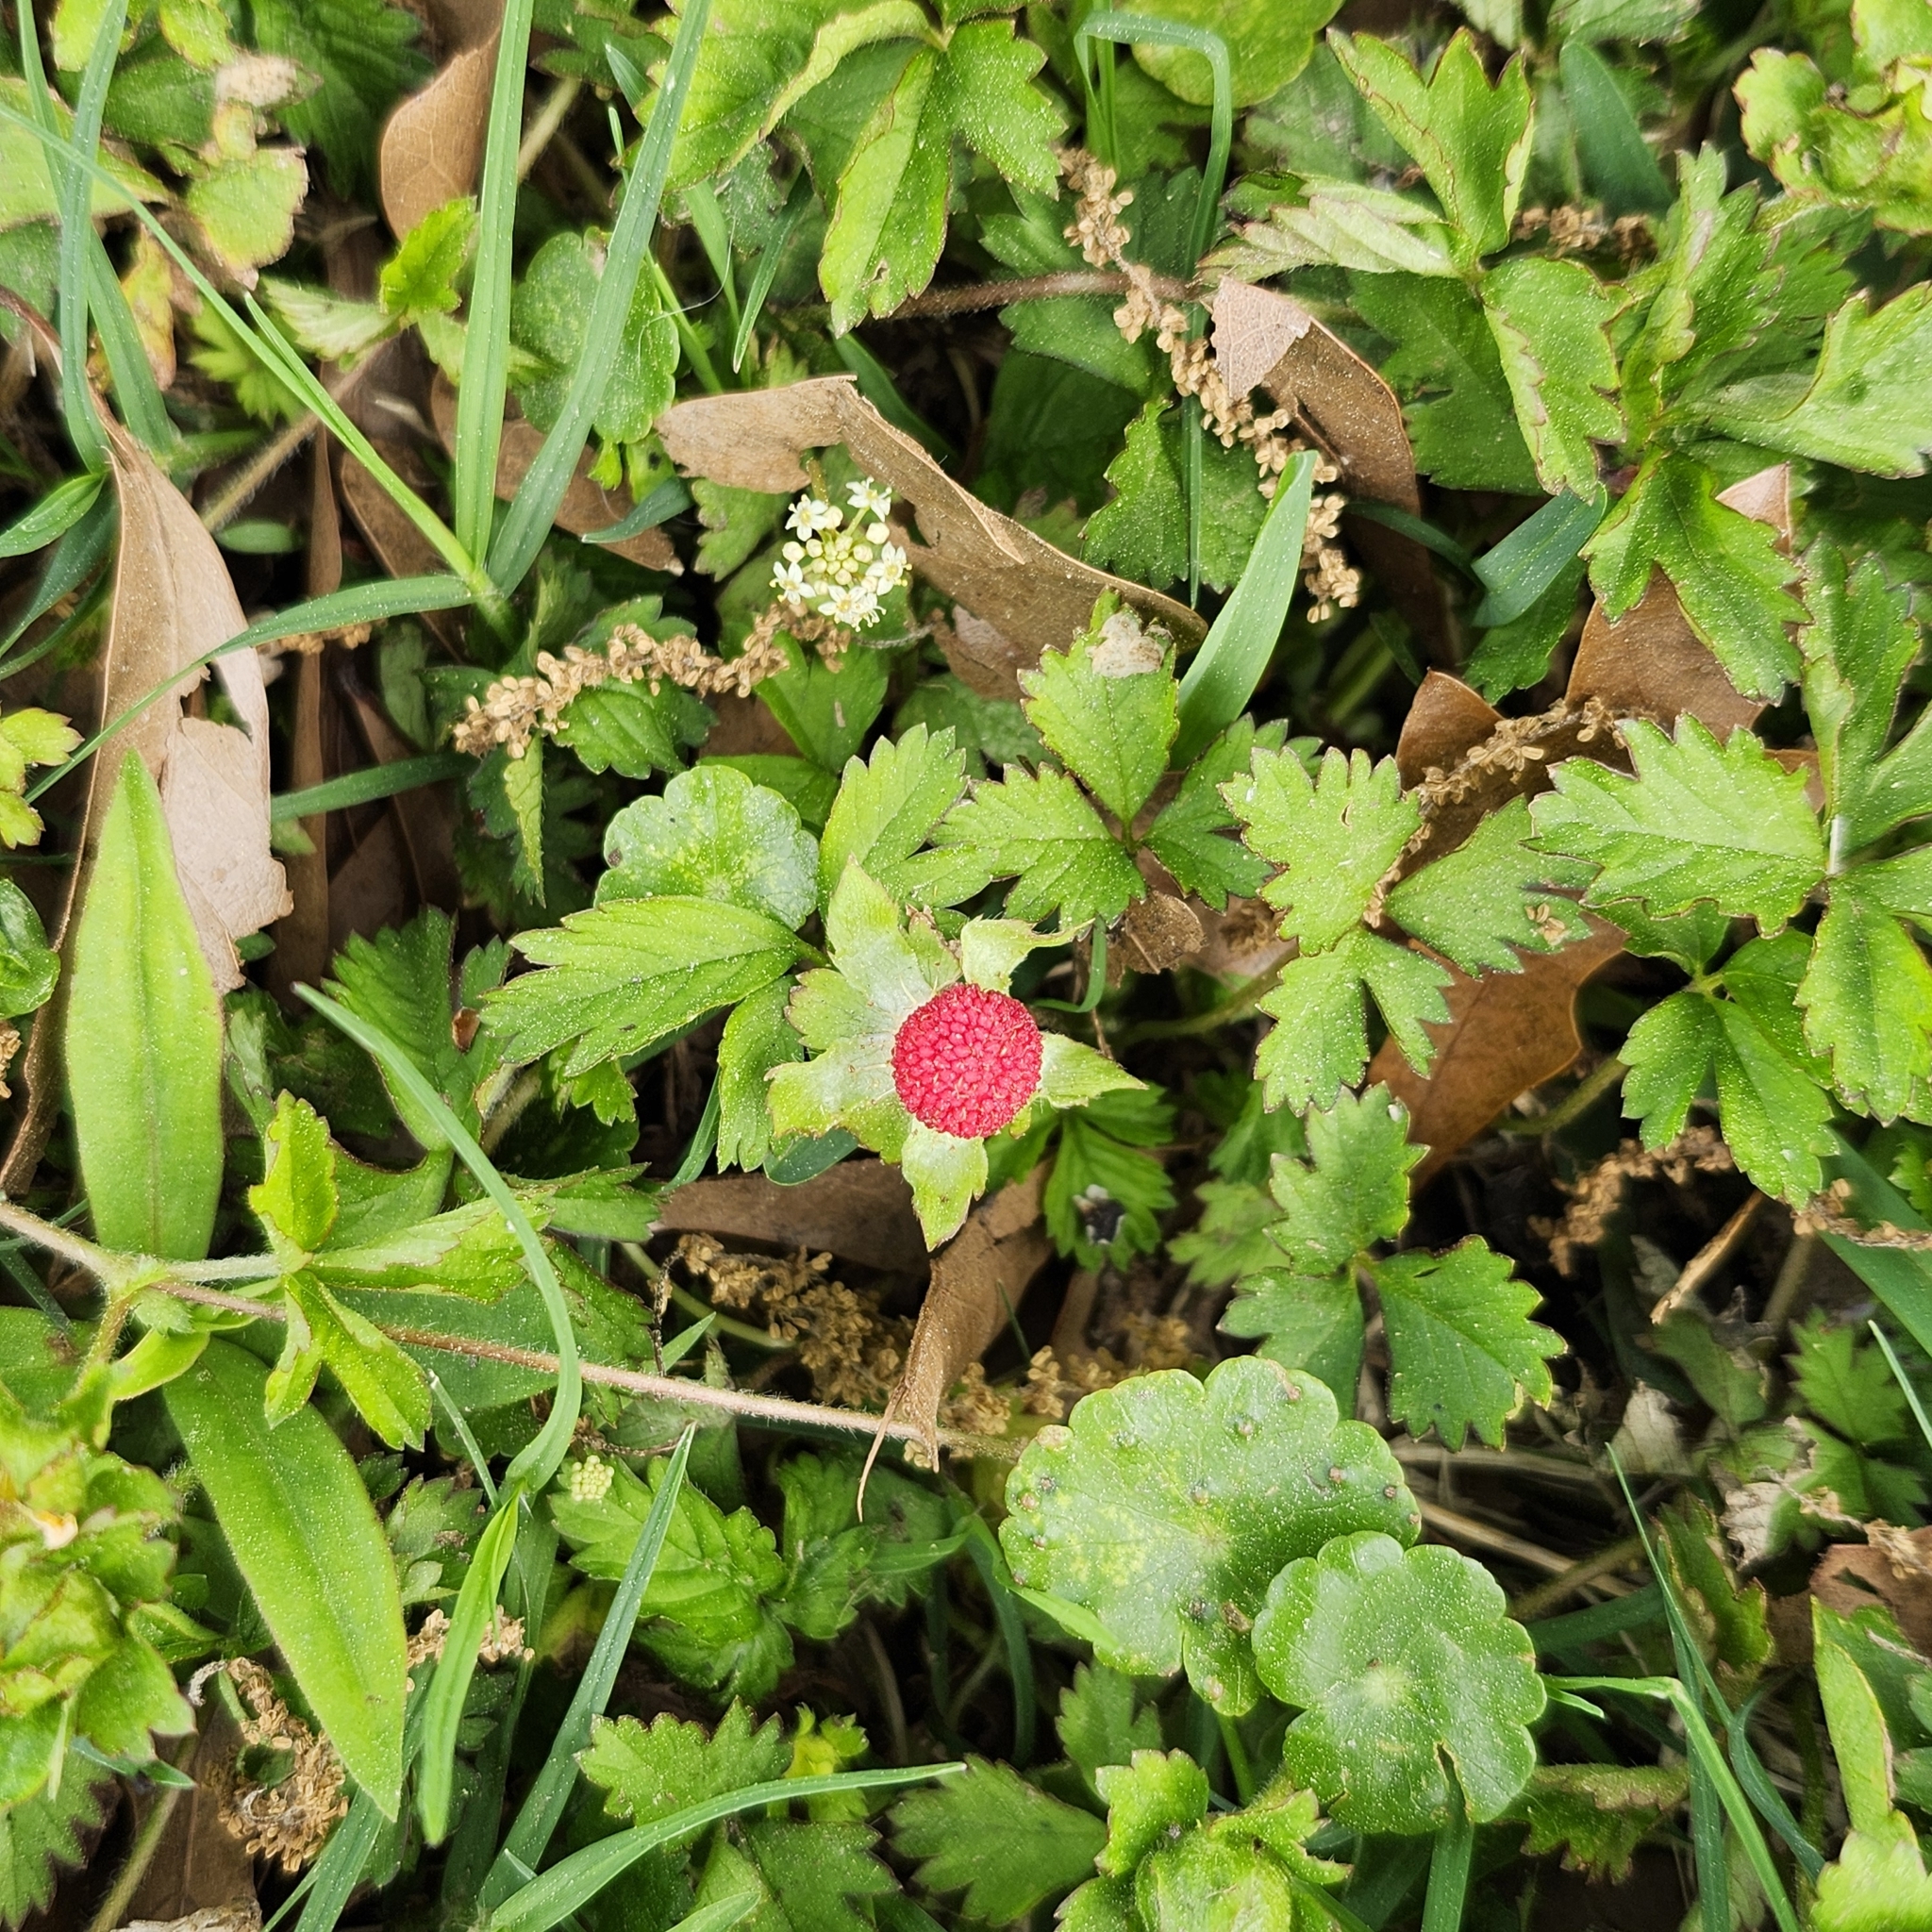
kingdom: Plantae
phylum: Tracheophyta
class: Magnoliopsida
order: Rosales
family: Rosaceae
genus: Potentilla
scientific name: Potentilla indica
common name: Yellow-flowered strawberry
